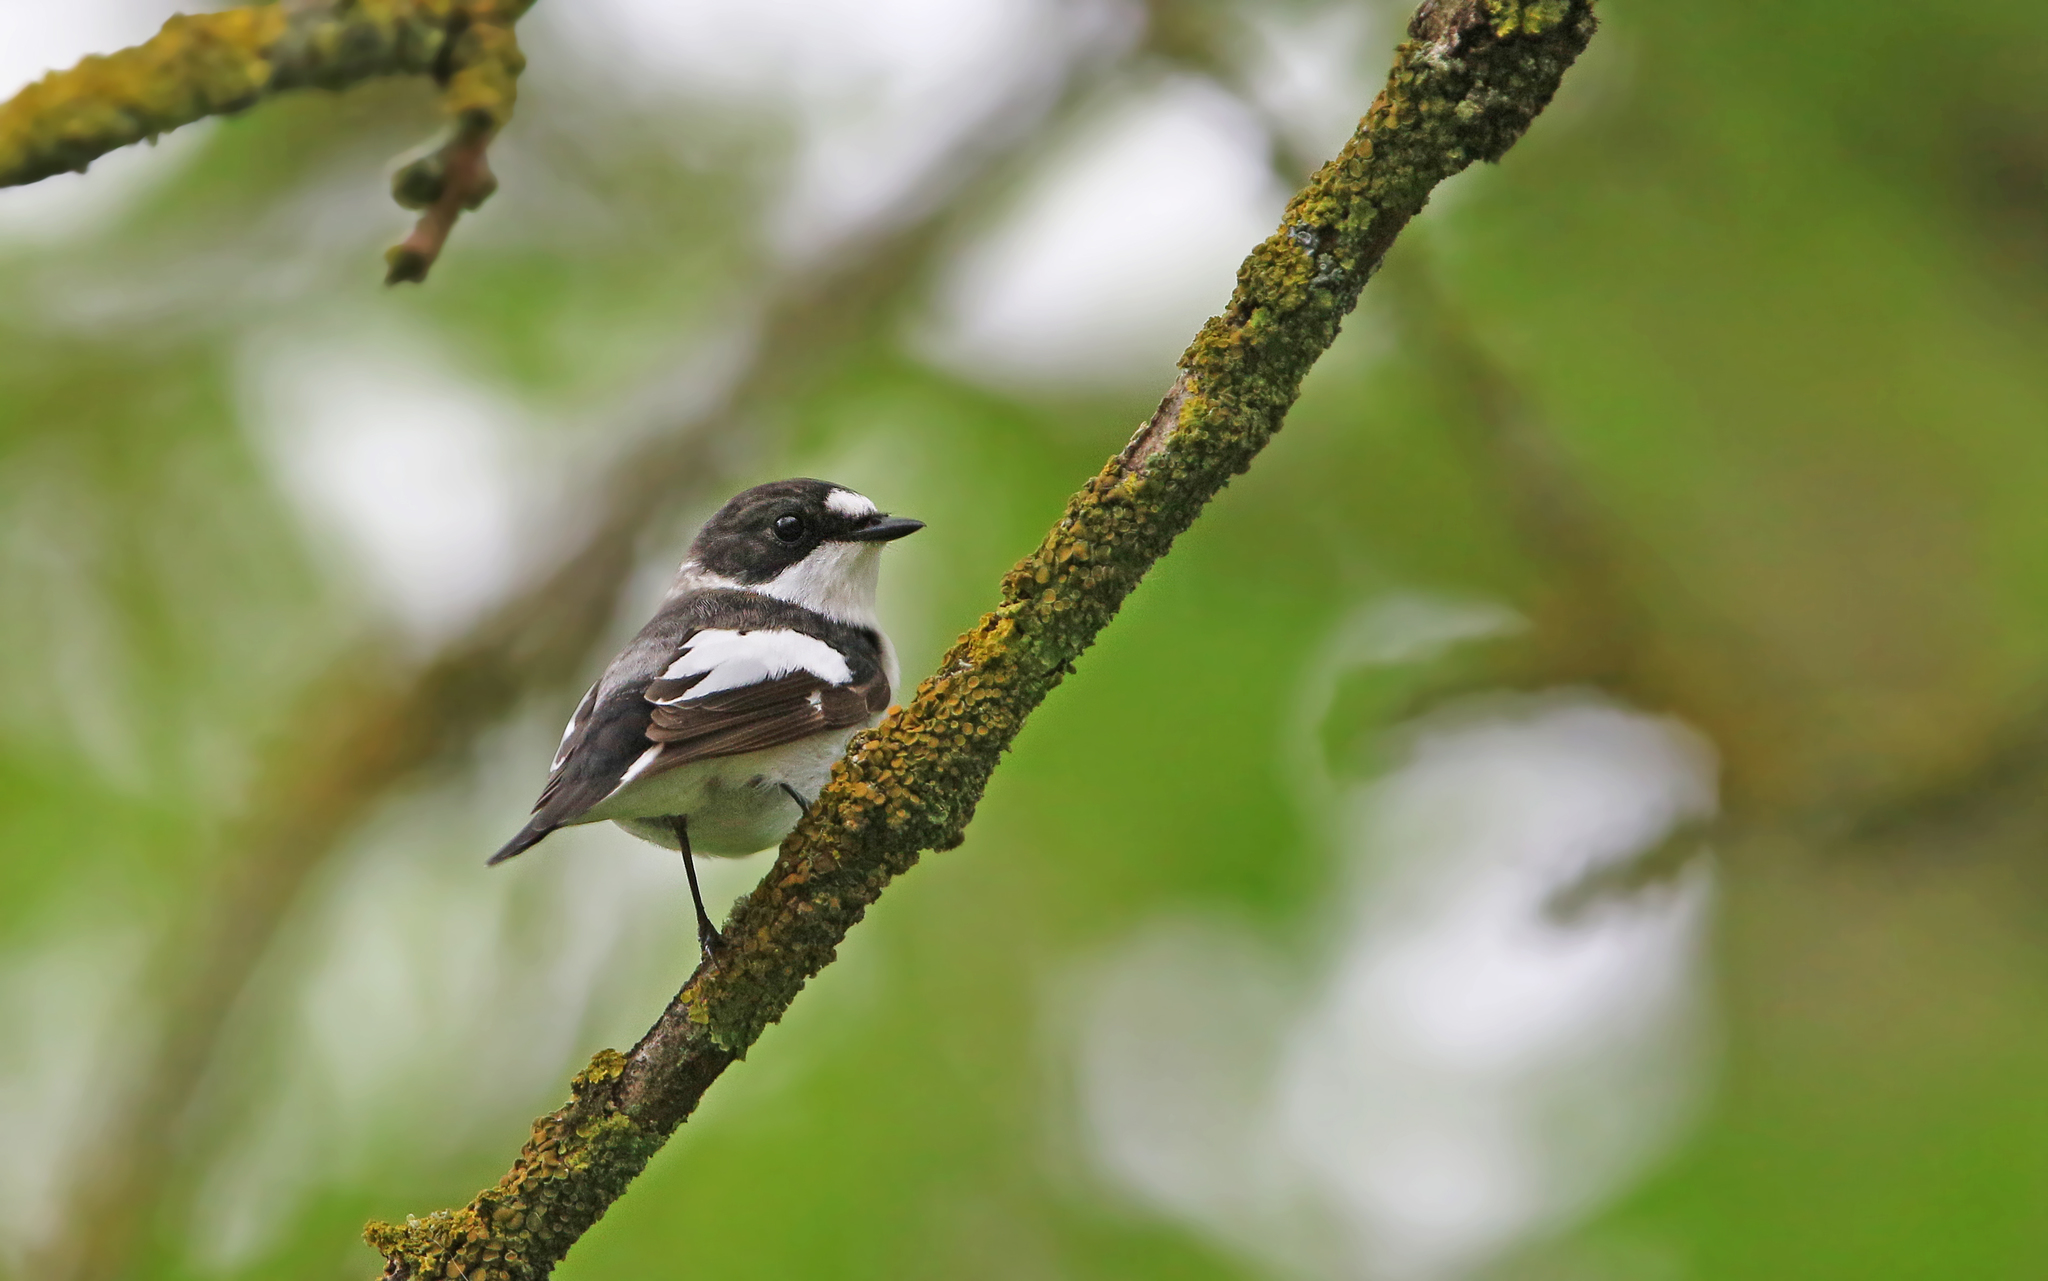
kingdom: Animalia
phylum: Chordata
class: Aves
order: Passeriformes
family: Muscicapidae
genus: Ficedula
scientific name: Ficedula albicollis
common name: Collared flycatcher
